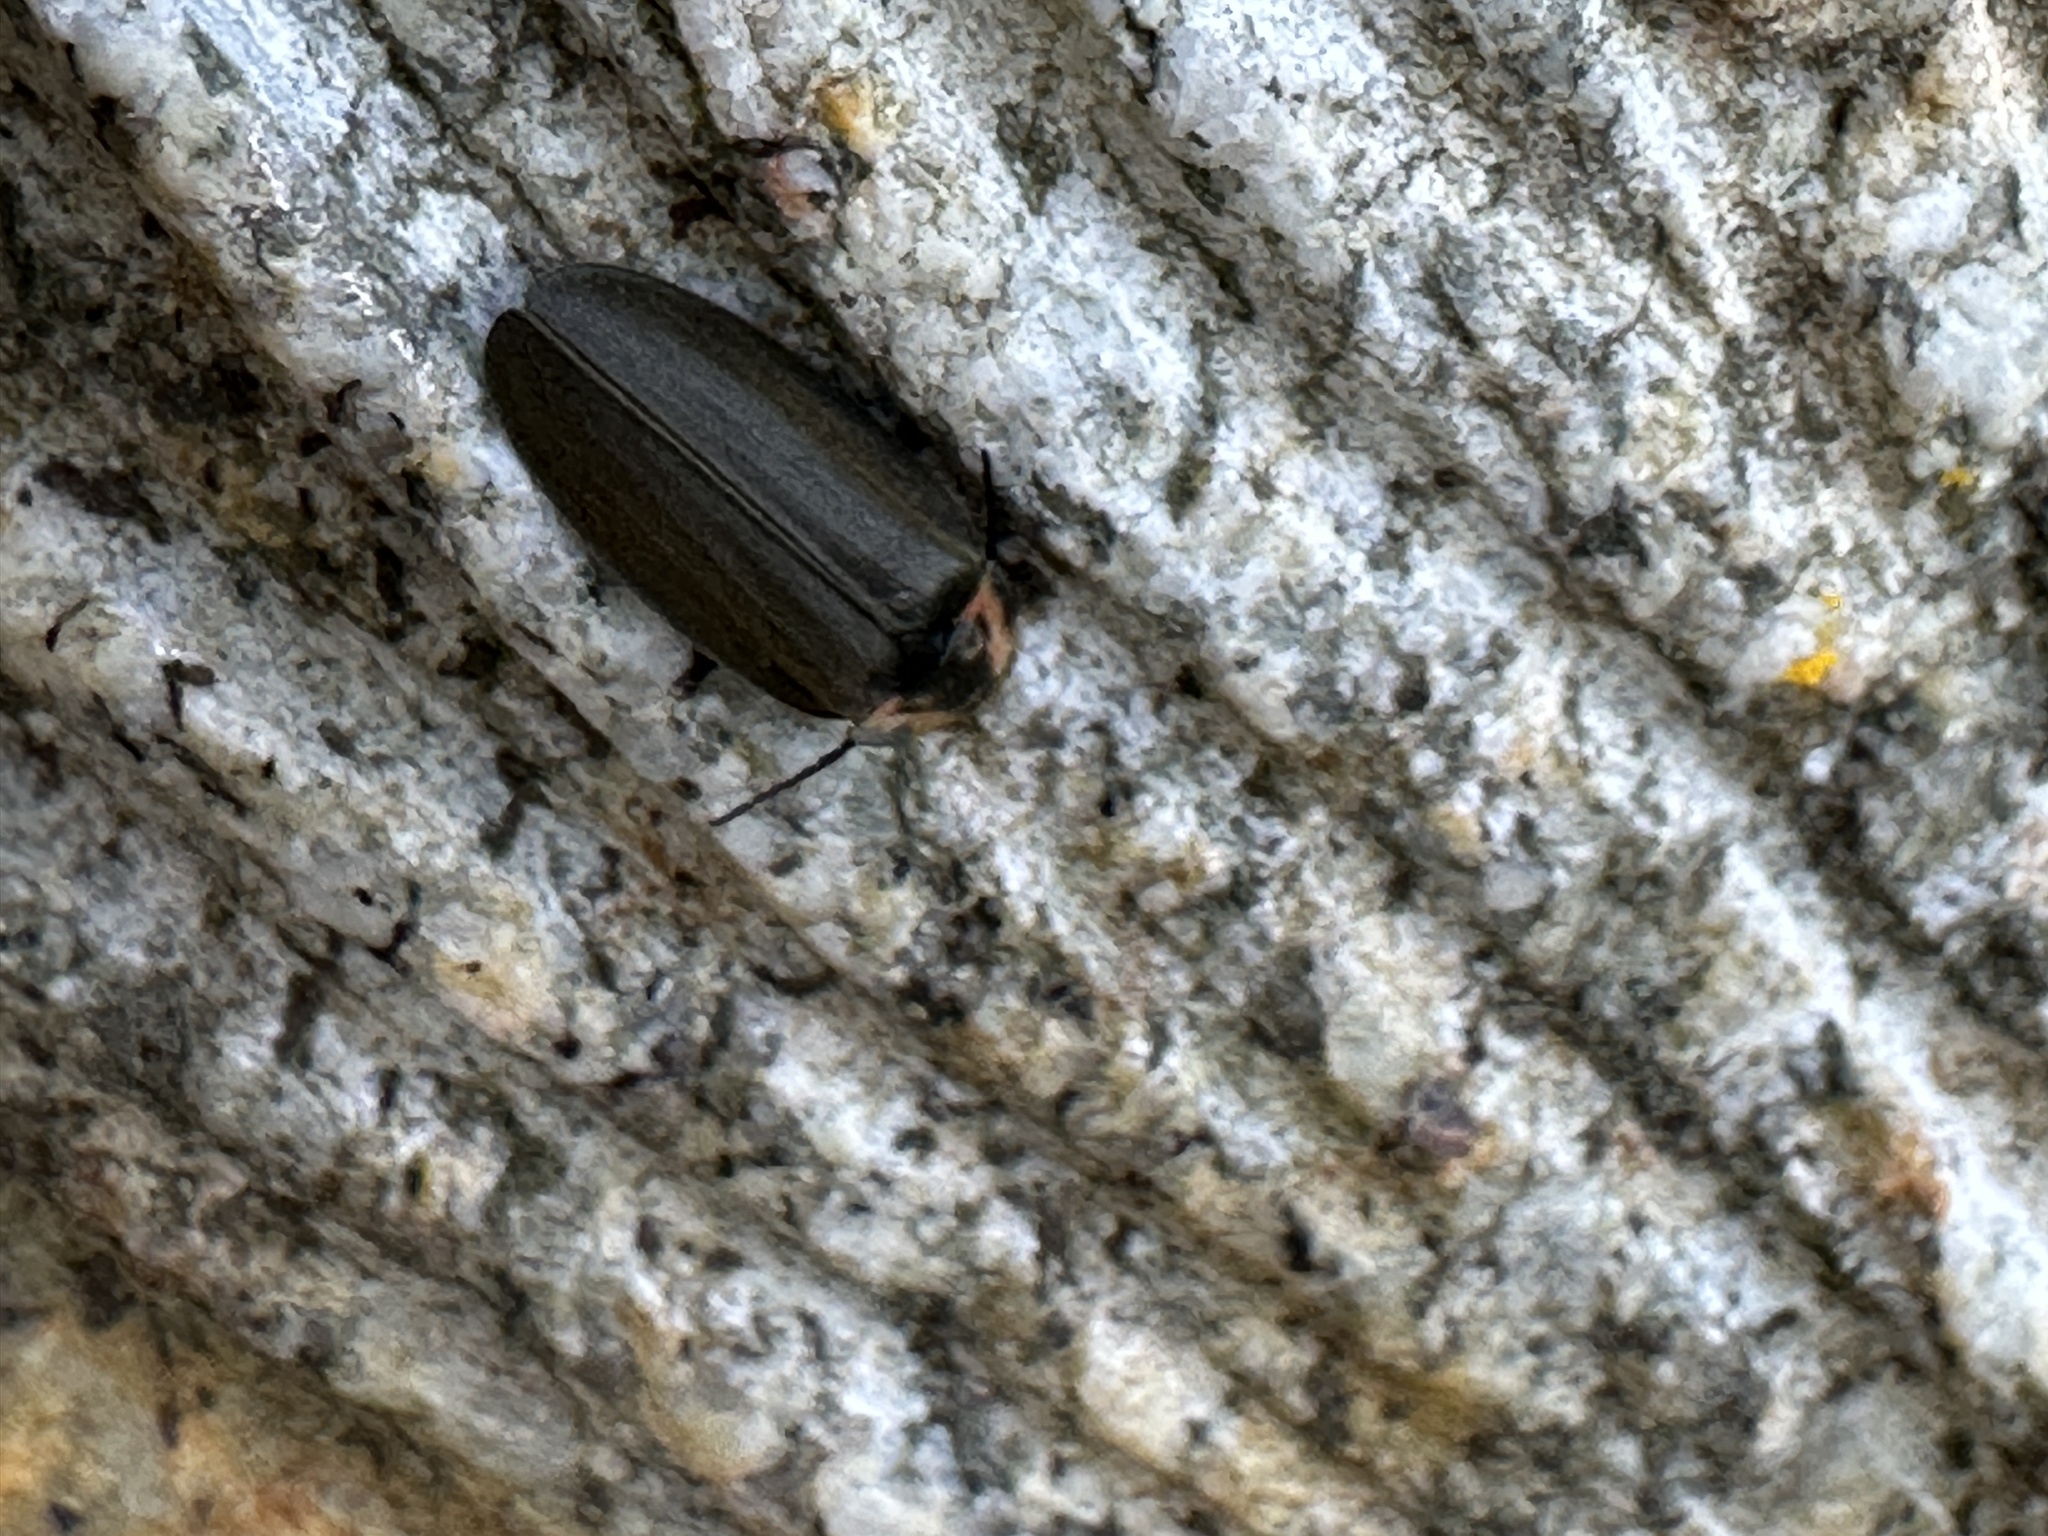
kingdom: Animalia
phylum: Arthropoda
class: Insecta
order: Coleoptera
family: Lampyridae
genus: Photinus
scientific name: Photinus corrusca
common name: Winter firefly
